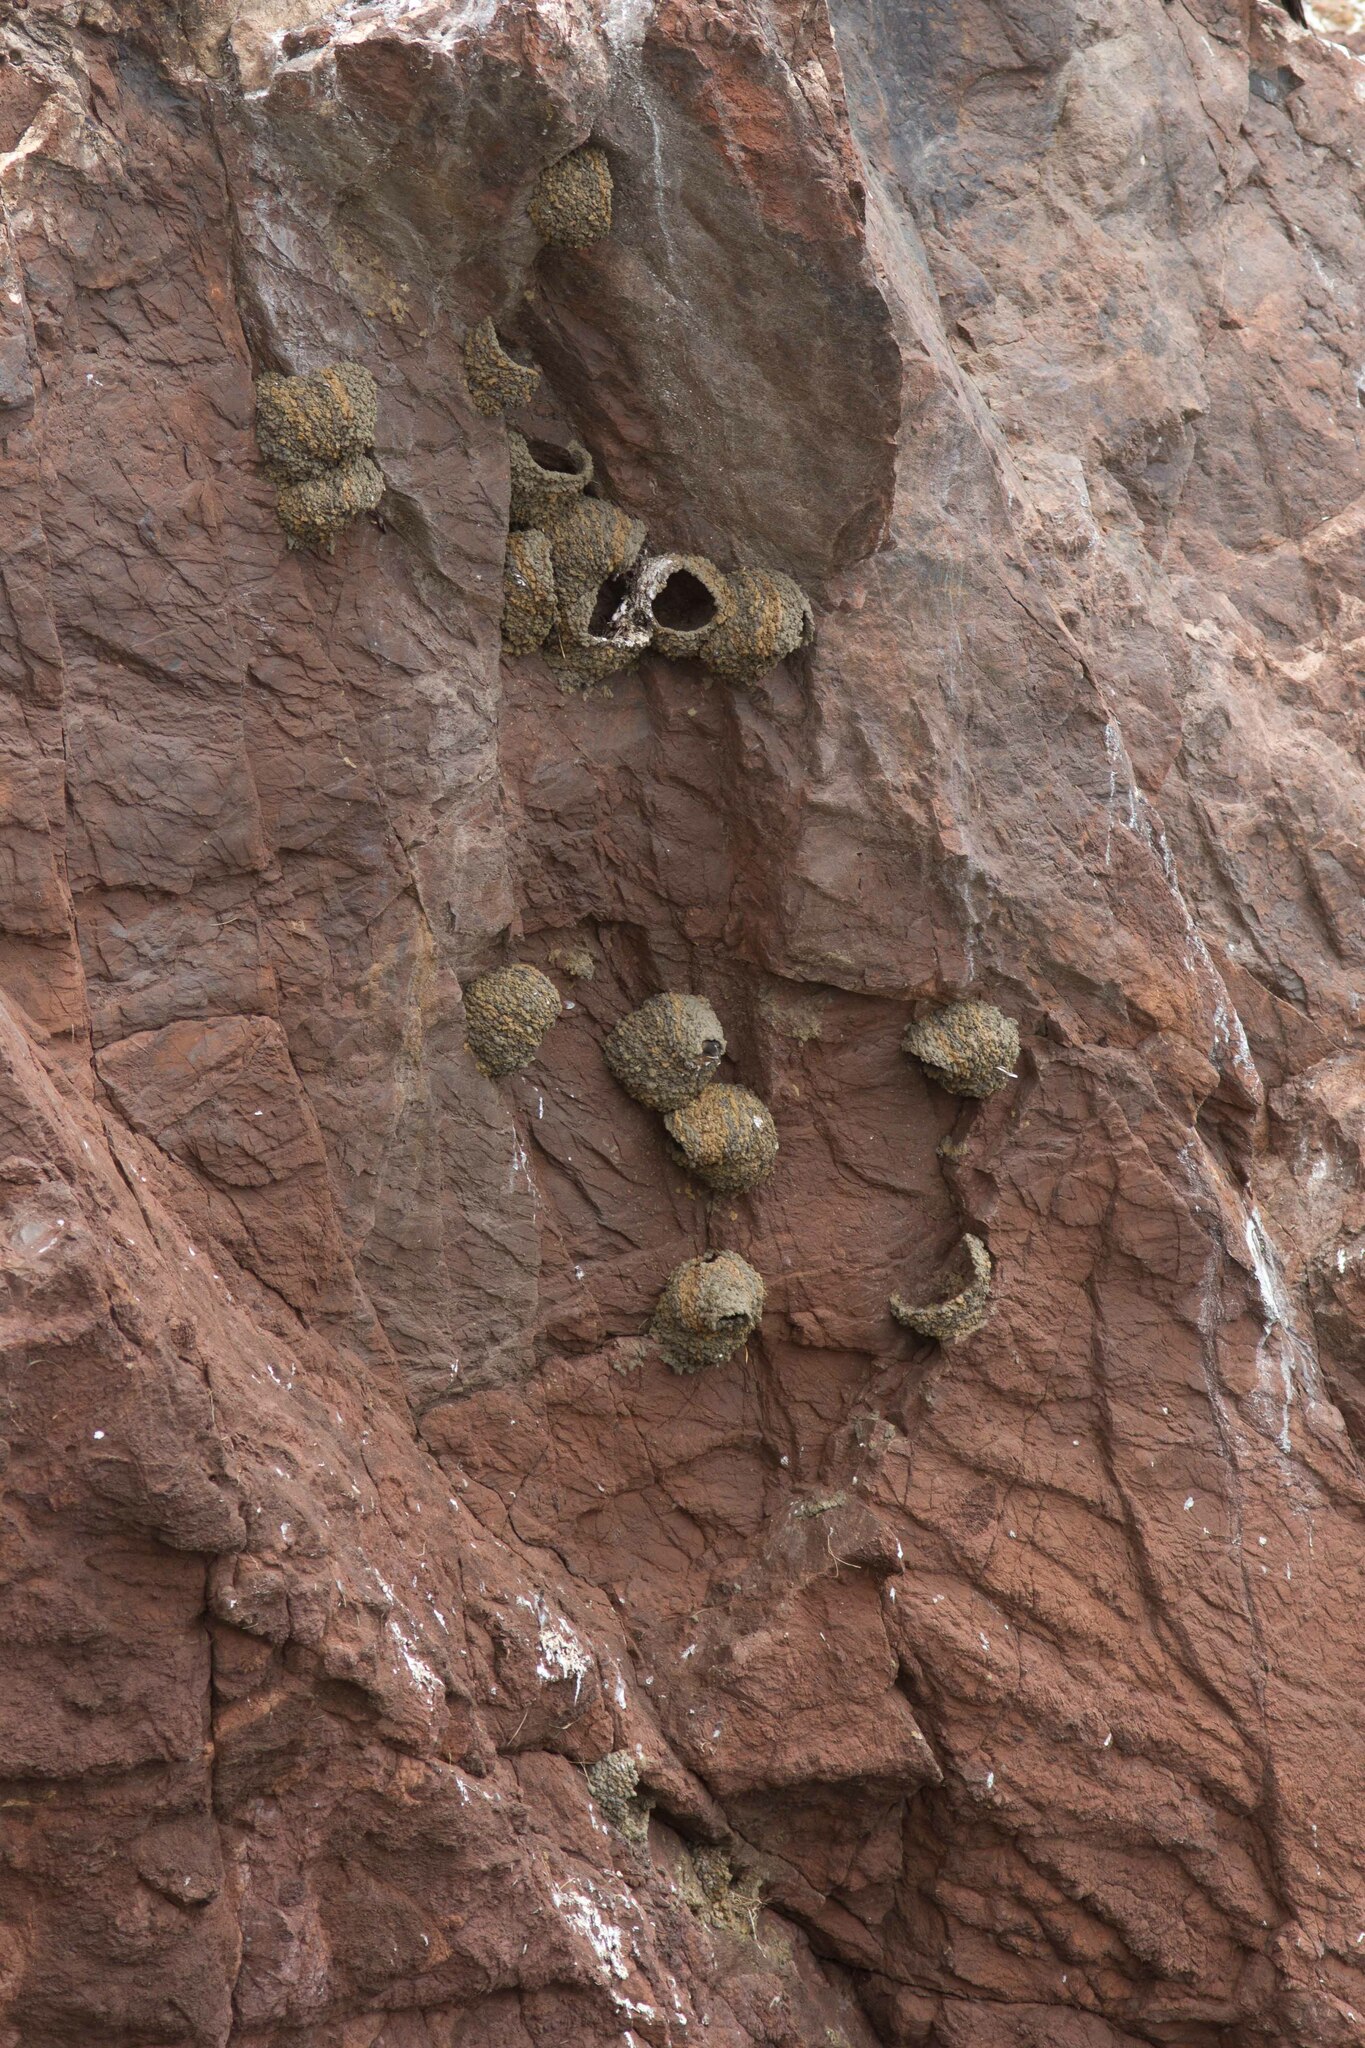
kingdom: Animalia
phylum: Chordata
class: Aves
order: Passeriformes
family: Hirundinidae
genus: Petrochelidon
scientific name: Petrochelidon pyrrhonota
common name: American cliff swallow
